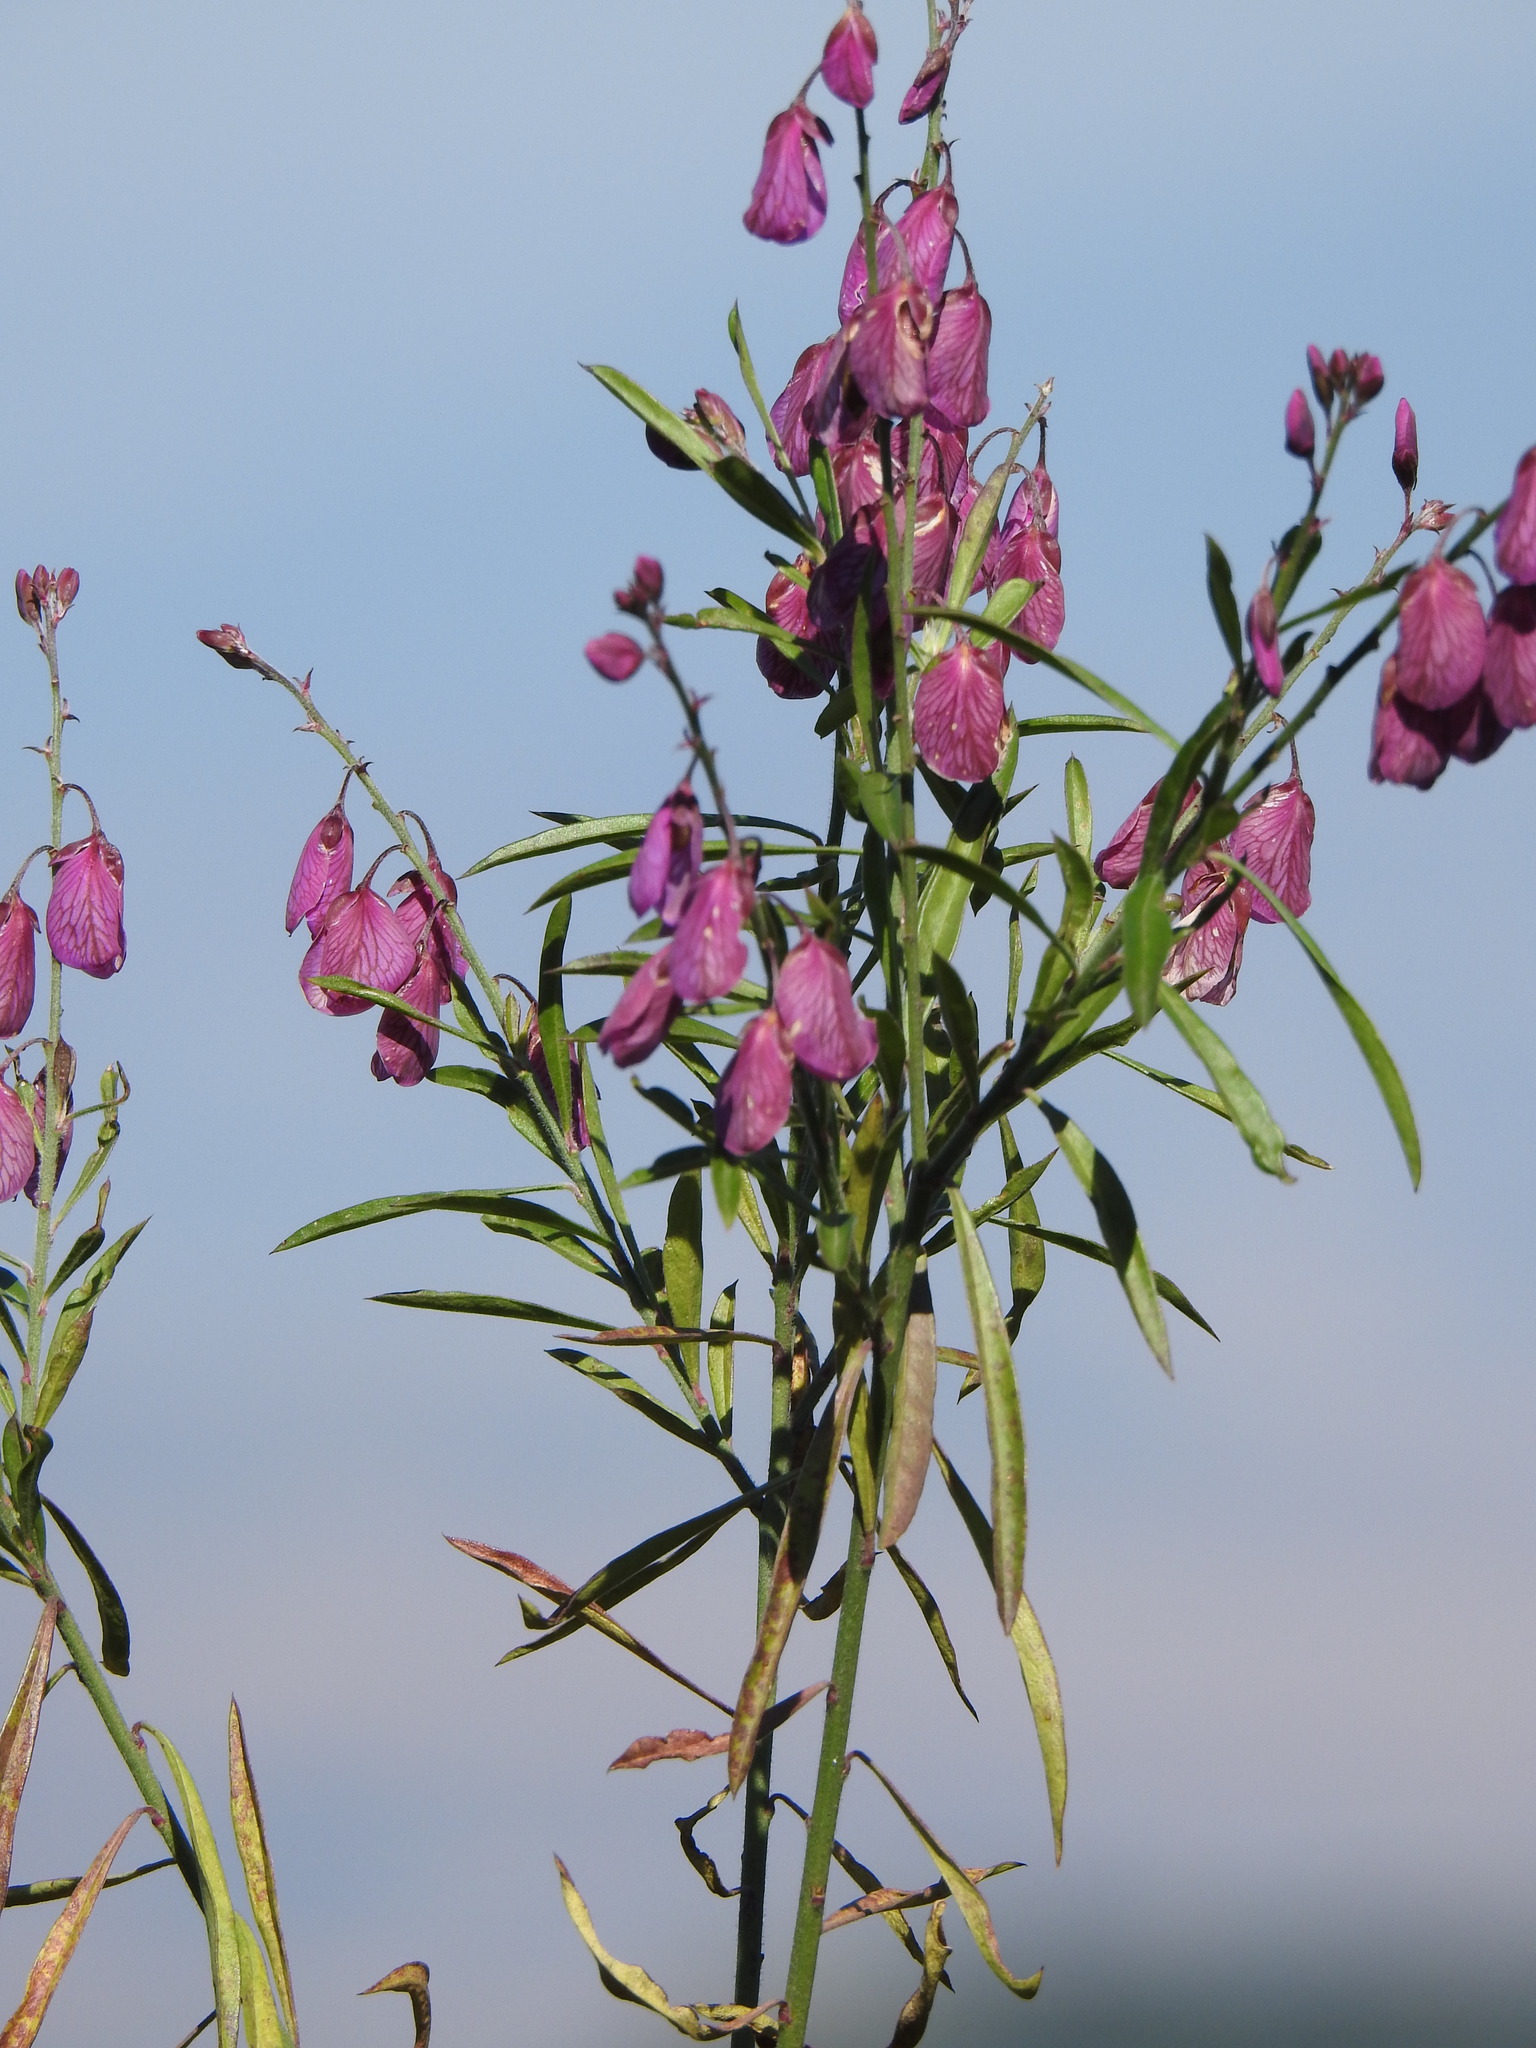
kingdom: Plantae
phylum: Tracheophyta
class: Magnoliopsida
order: Fabales
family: Polygalaceae
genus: Polygala
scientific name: Polygala virgata
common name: Milkwort
